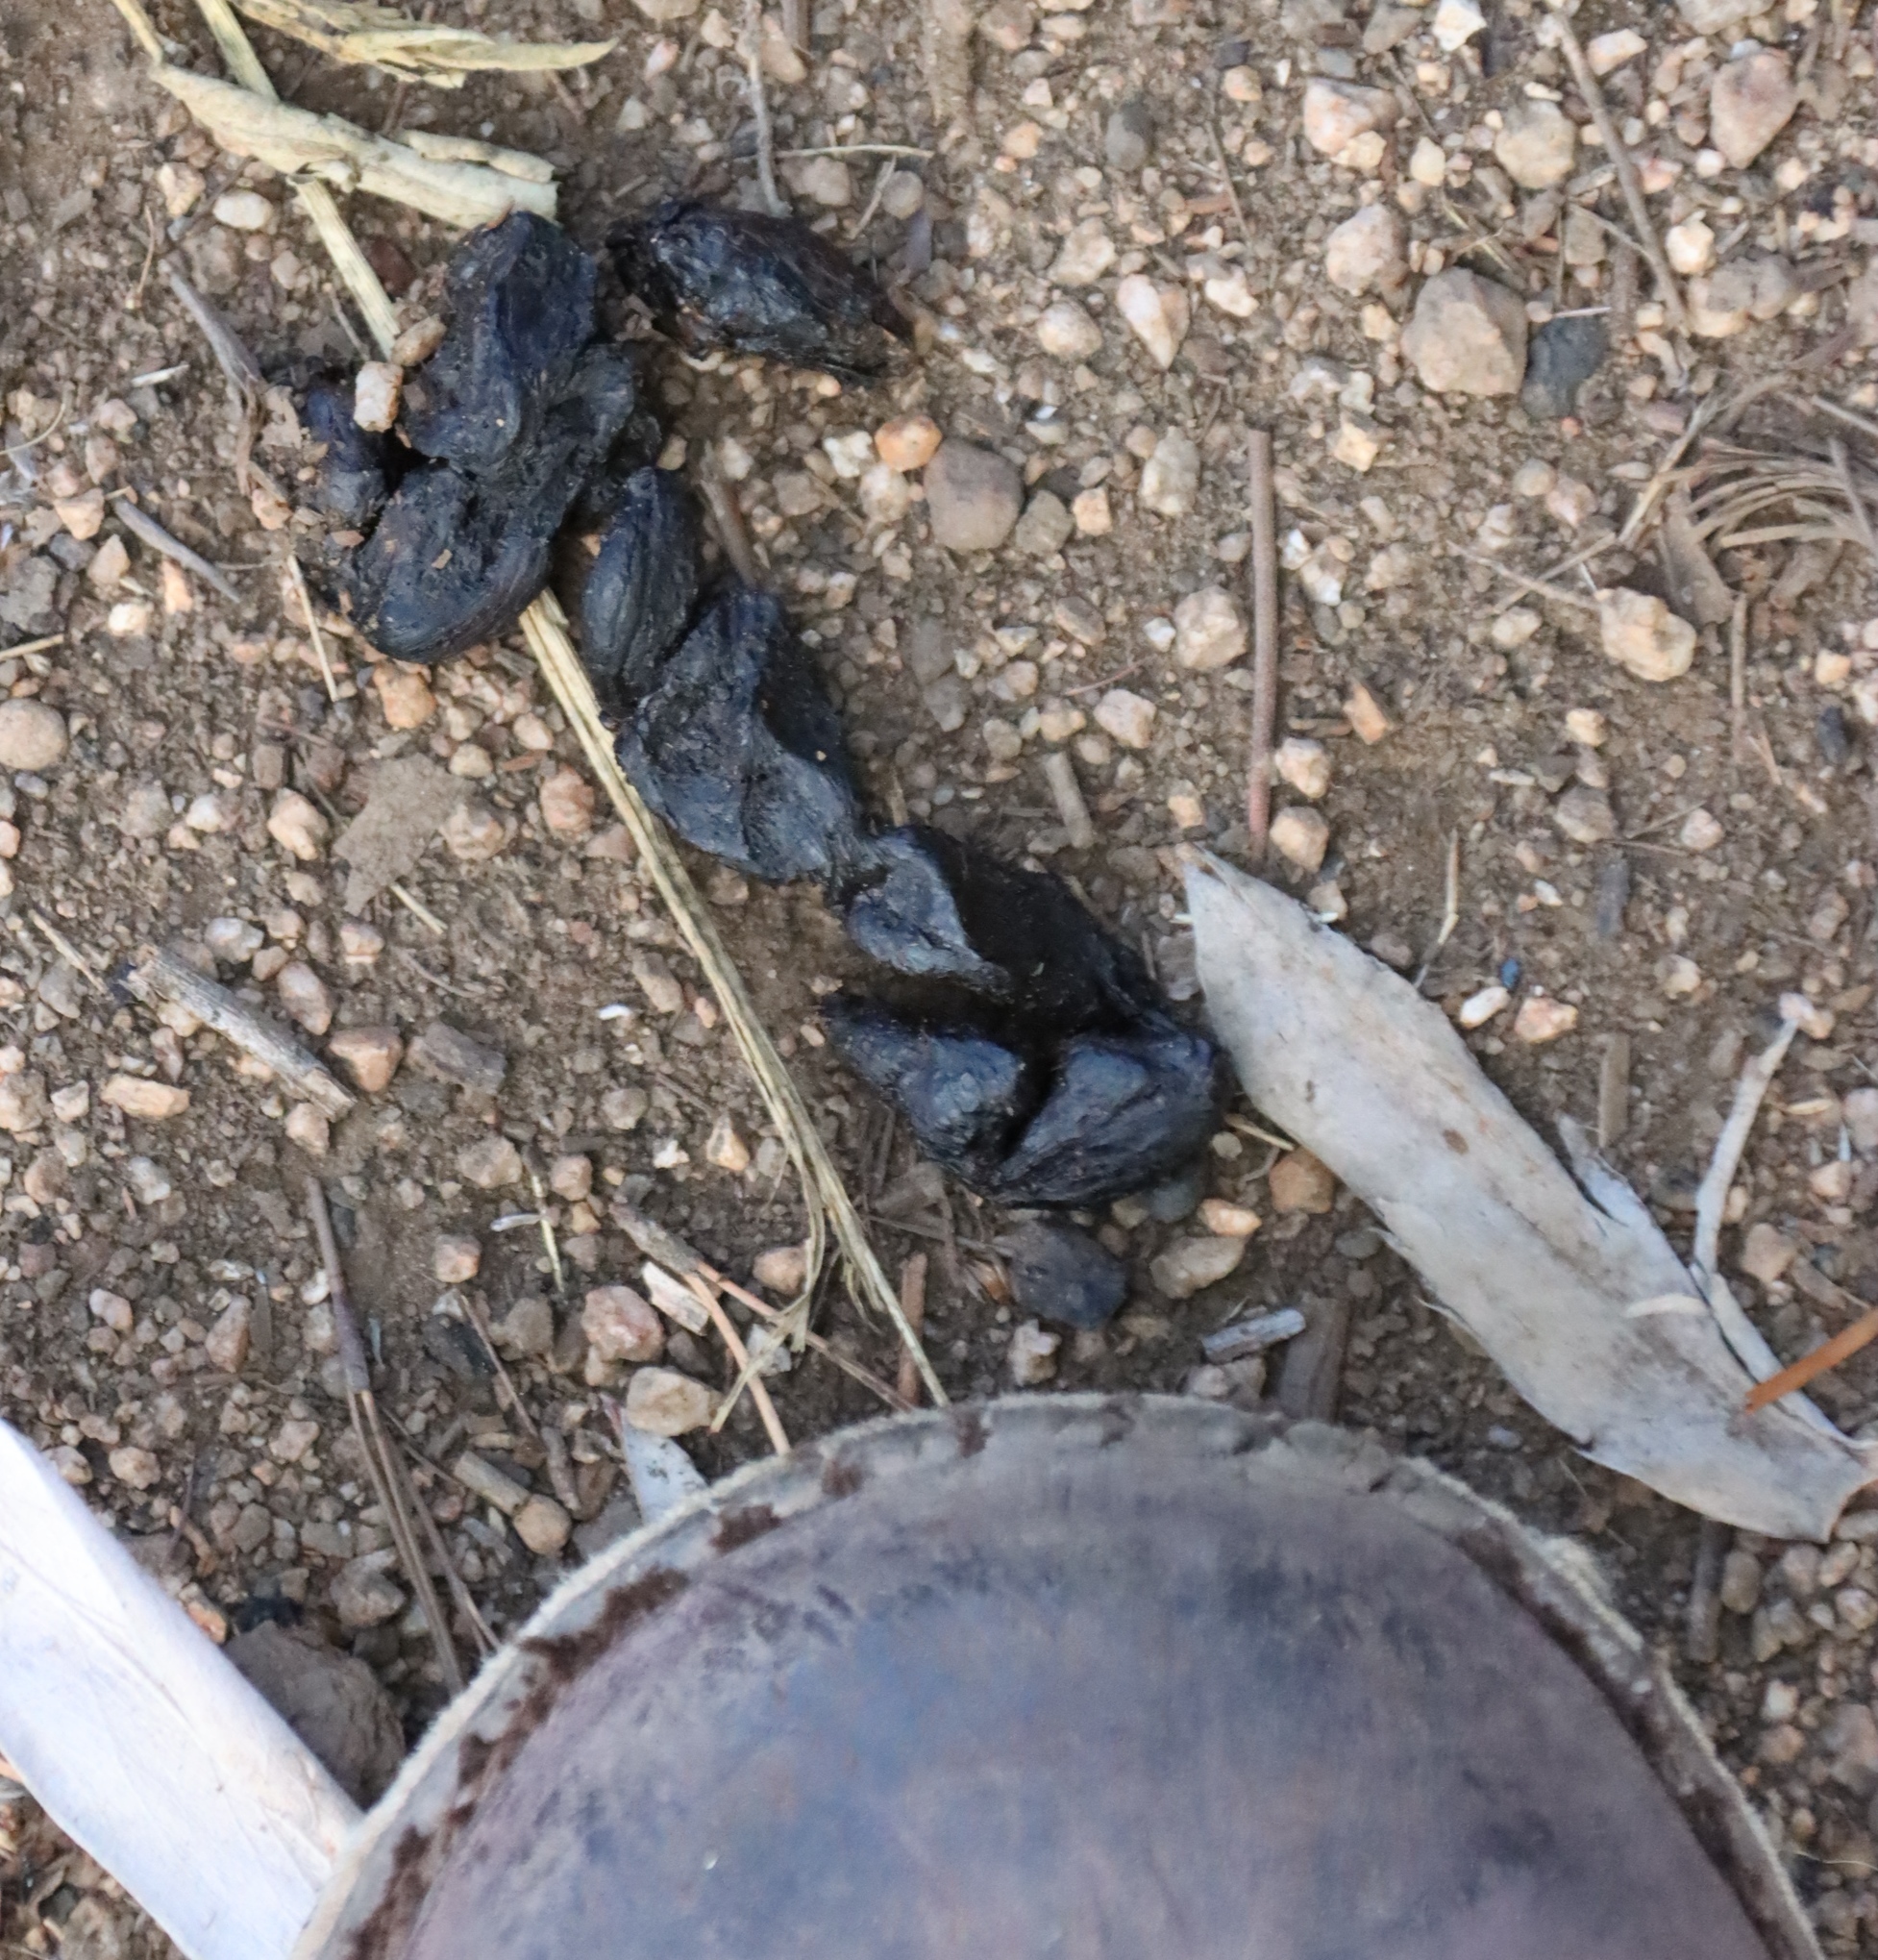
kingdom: Animalia
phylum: Chordata
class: Mammalia
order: Rodentia
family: Hystricidae
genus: Hystrix
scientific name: Hystrix africaeaustralis
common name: Cape porcupine
